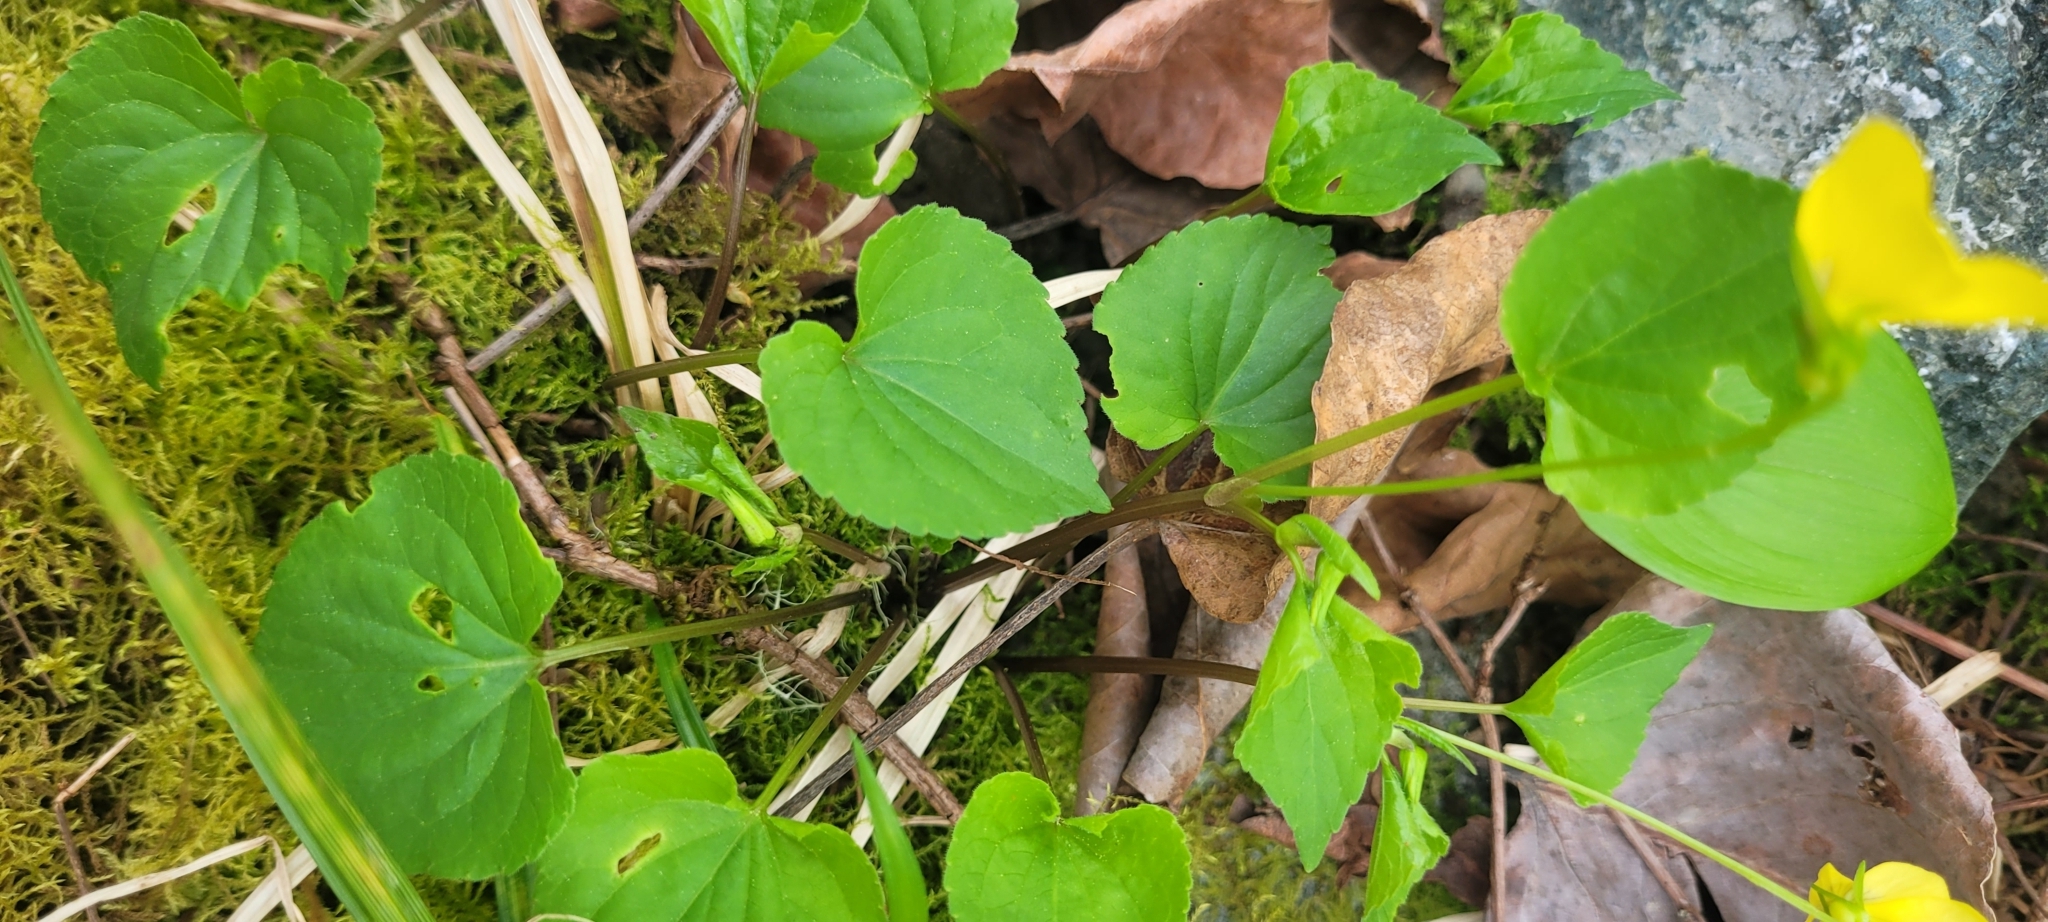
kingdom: Plantae
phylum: Tracheophyta
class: Magnoliopsida
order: Malpighiales
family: Violaceae
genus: Viola
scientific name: Viola glabella
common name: Stream violet
